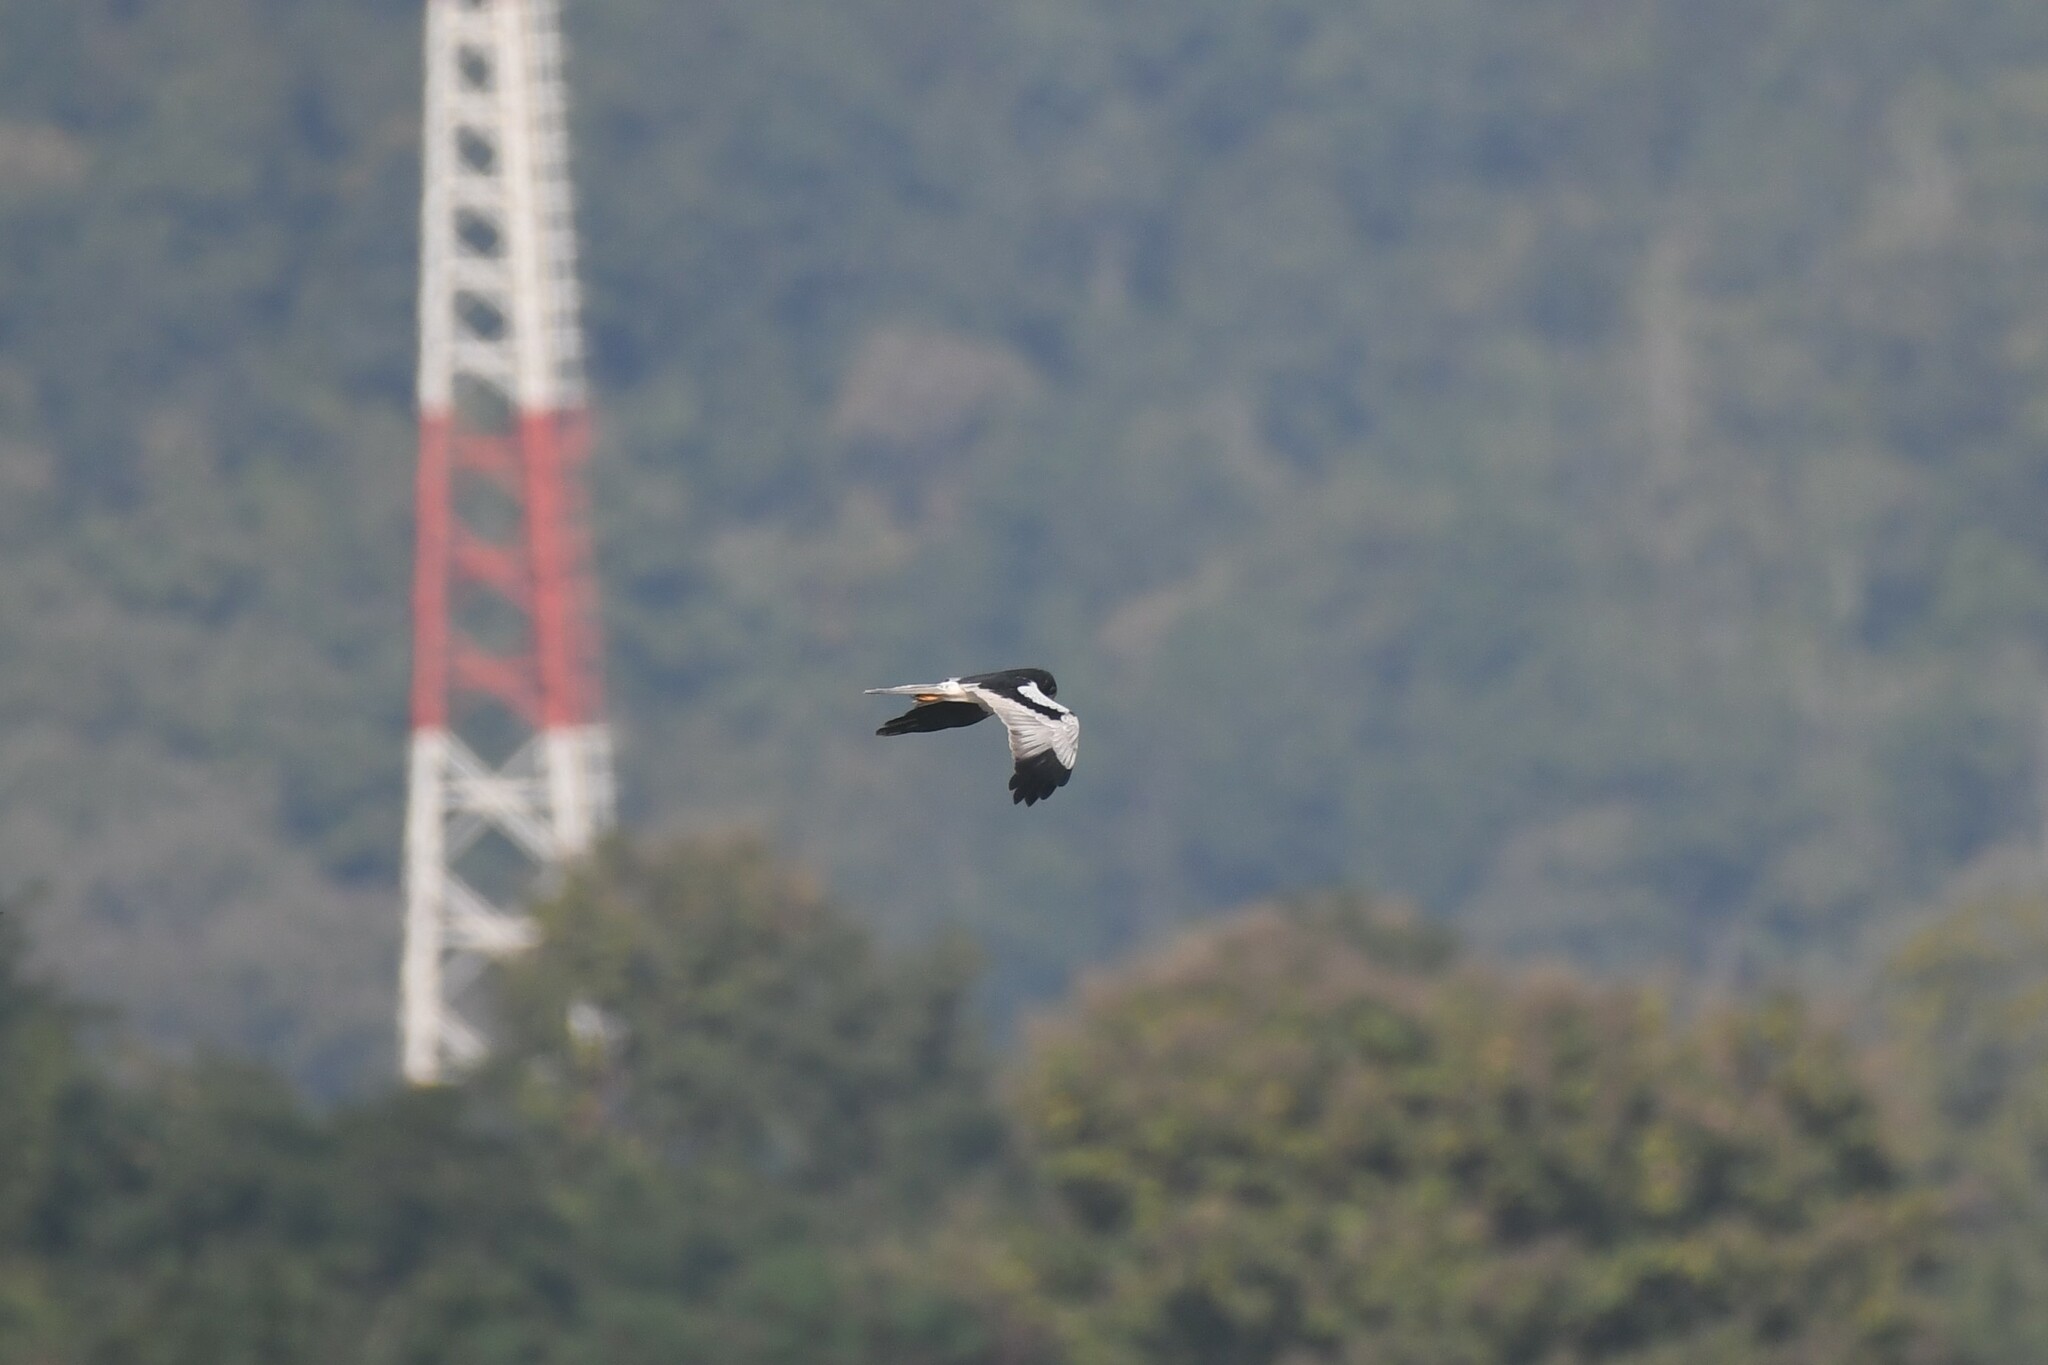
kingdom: Animalia
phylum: Chordata
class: Aves
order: Accipitriformes
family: Accipitridae
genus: Circus
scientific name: Circus melanoleucos
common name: Pied harrier
